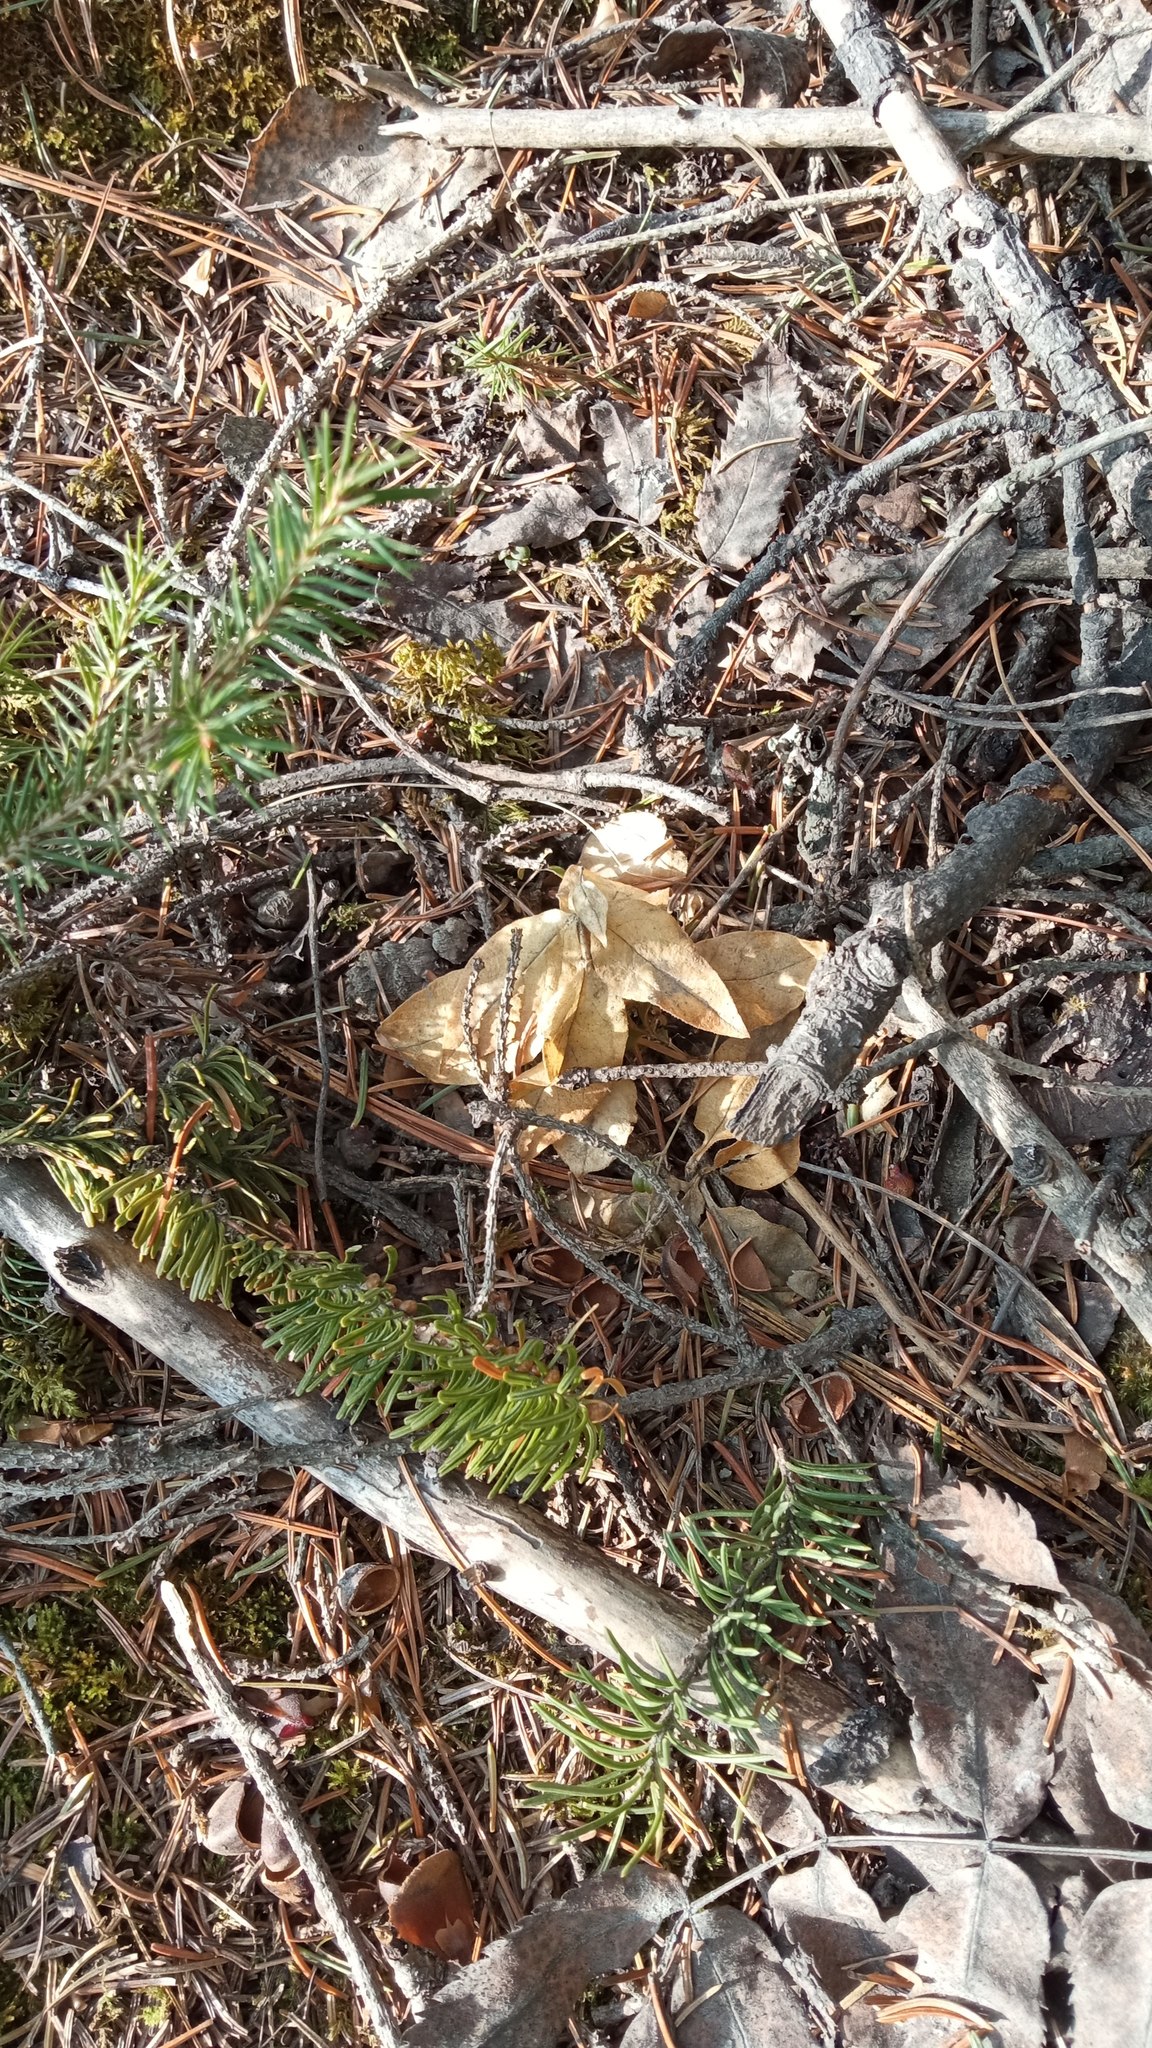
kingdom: Plantae
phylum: Tracheophyta
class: Magnoliopsida
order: Caryophyllales
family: Caryophyllaceae
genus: Stellaria
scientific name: Stellaria bungeana
